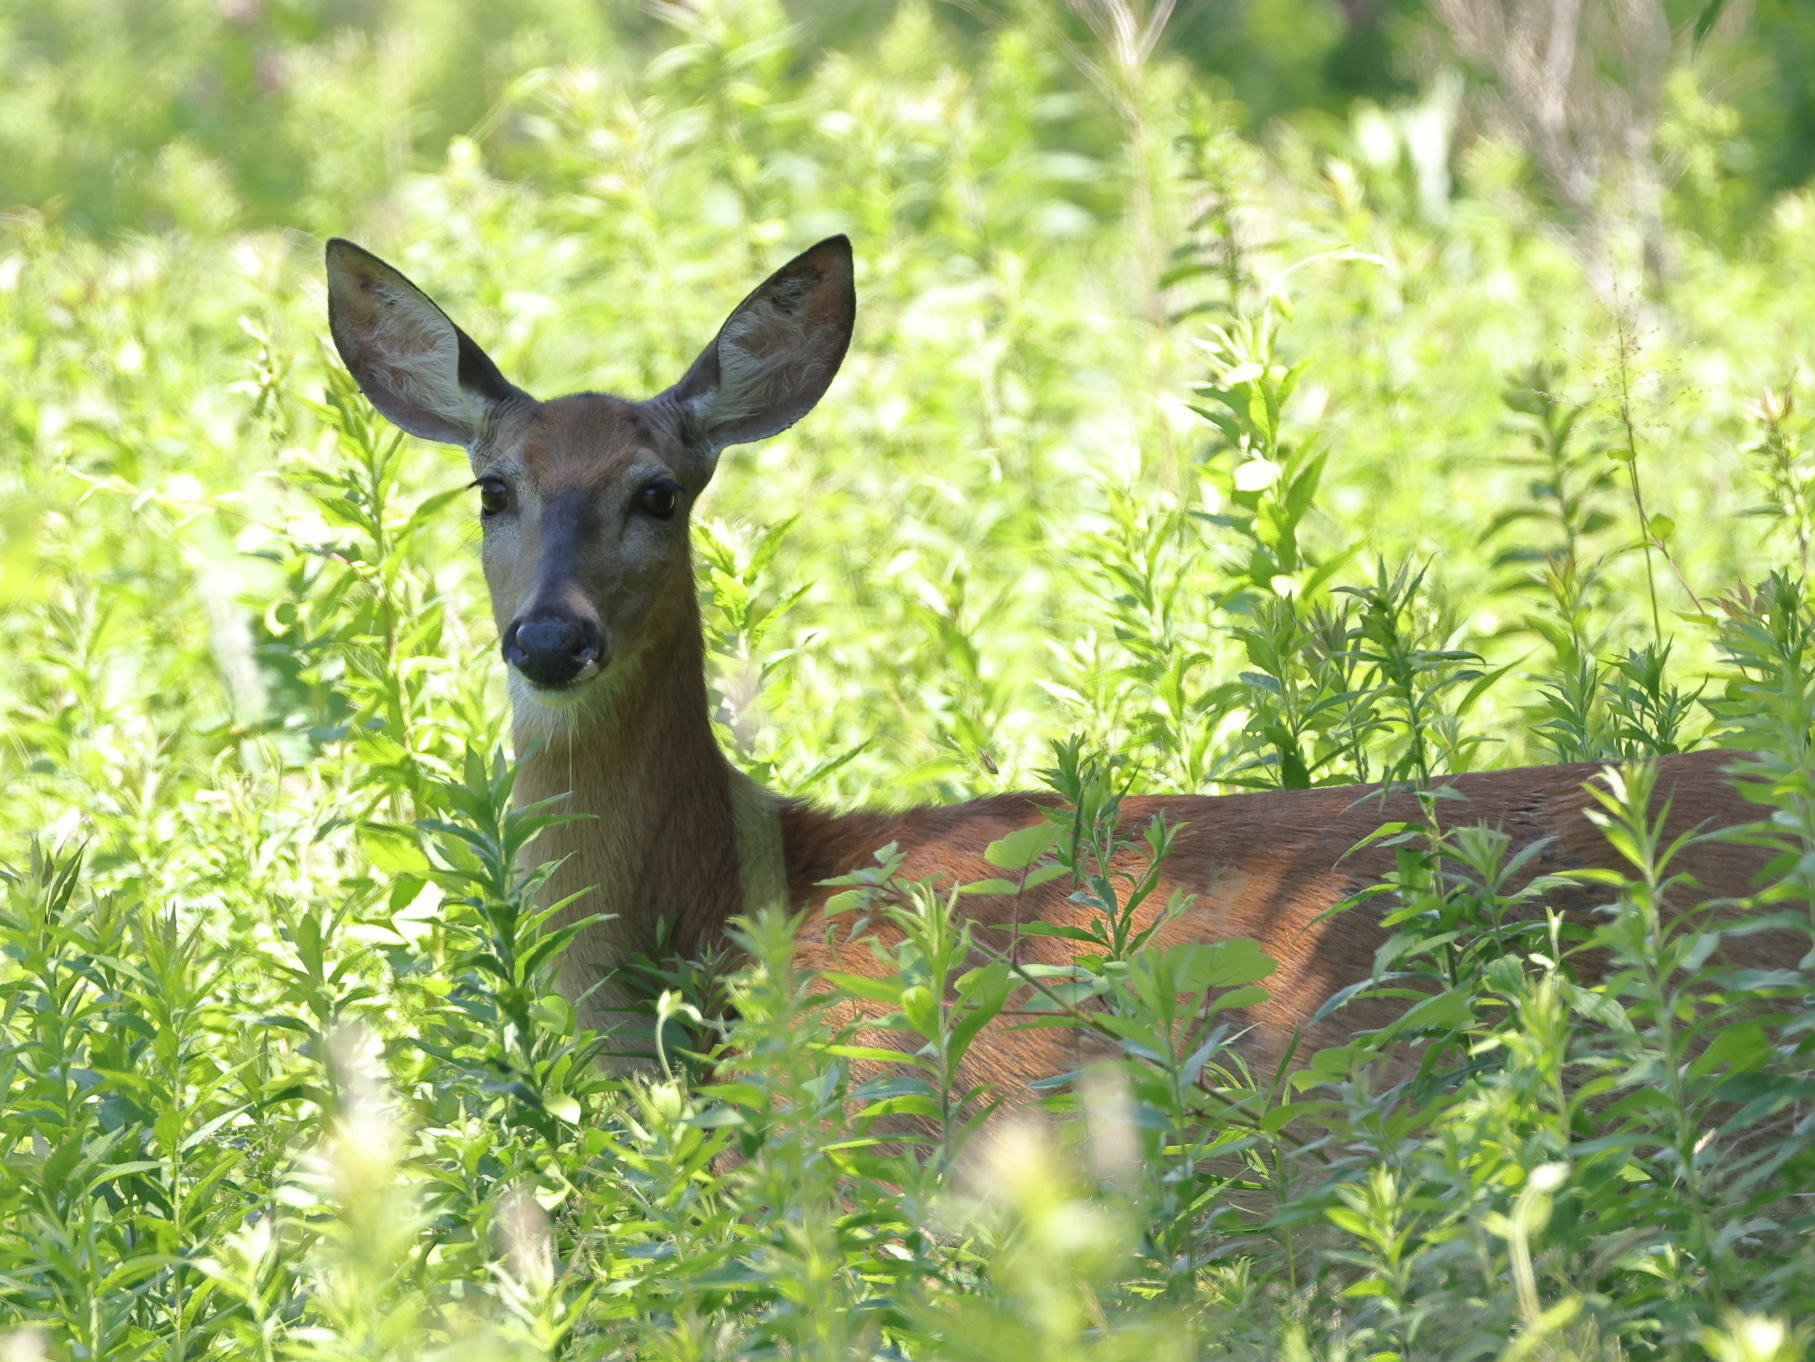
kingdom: Animalia
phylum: Chordata
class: Mammalia
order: Artiodactyla
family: Cervidae
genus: Odocoileus
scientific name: Odocoileus virginianus
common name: White-tailed deer
